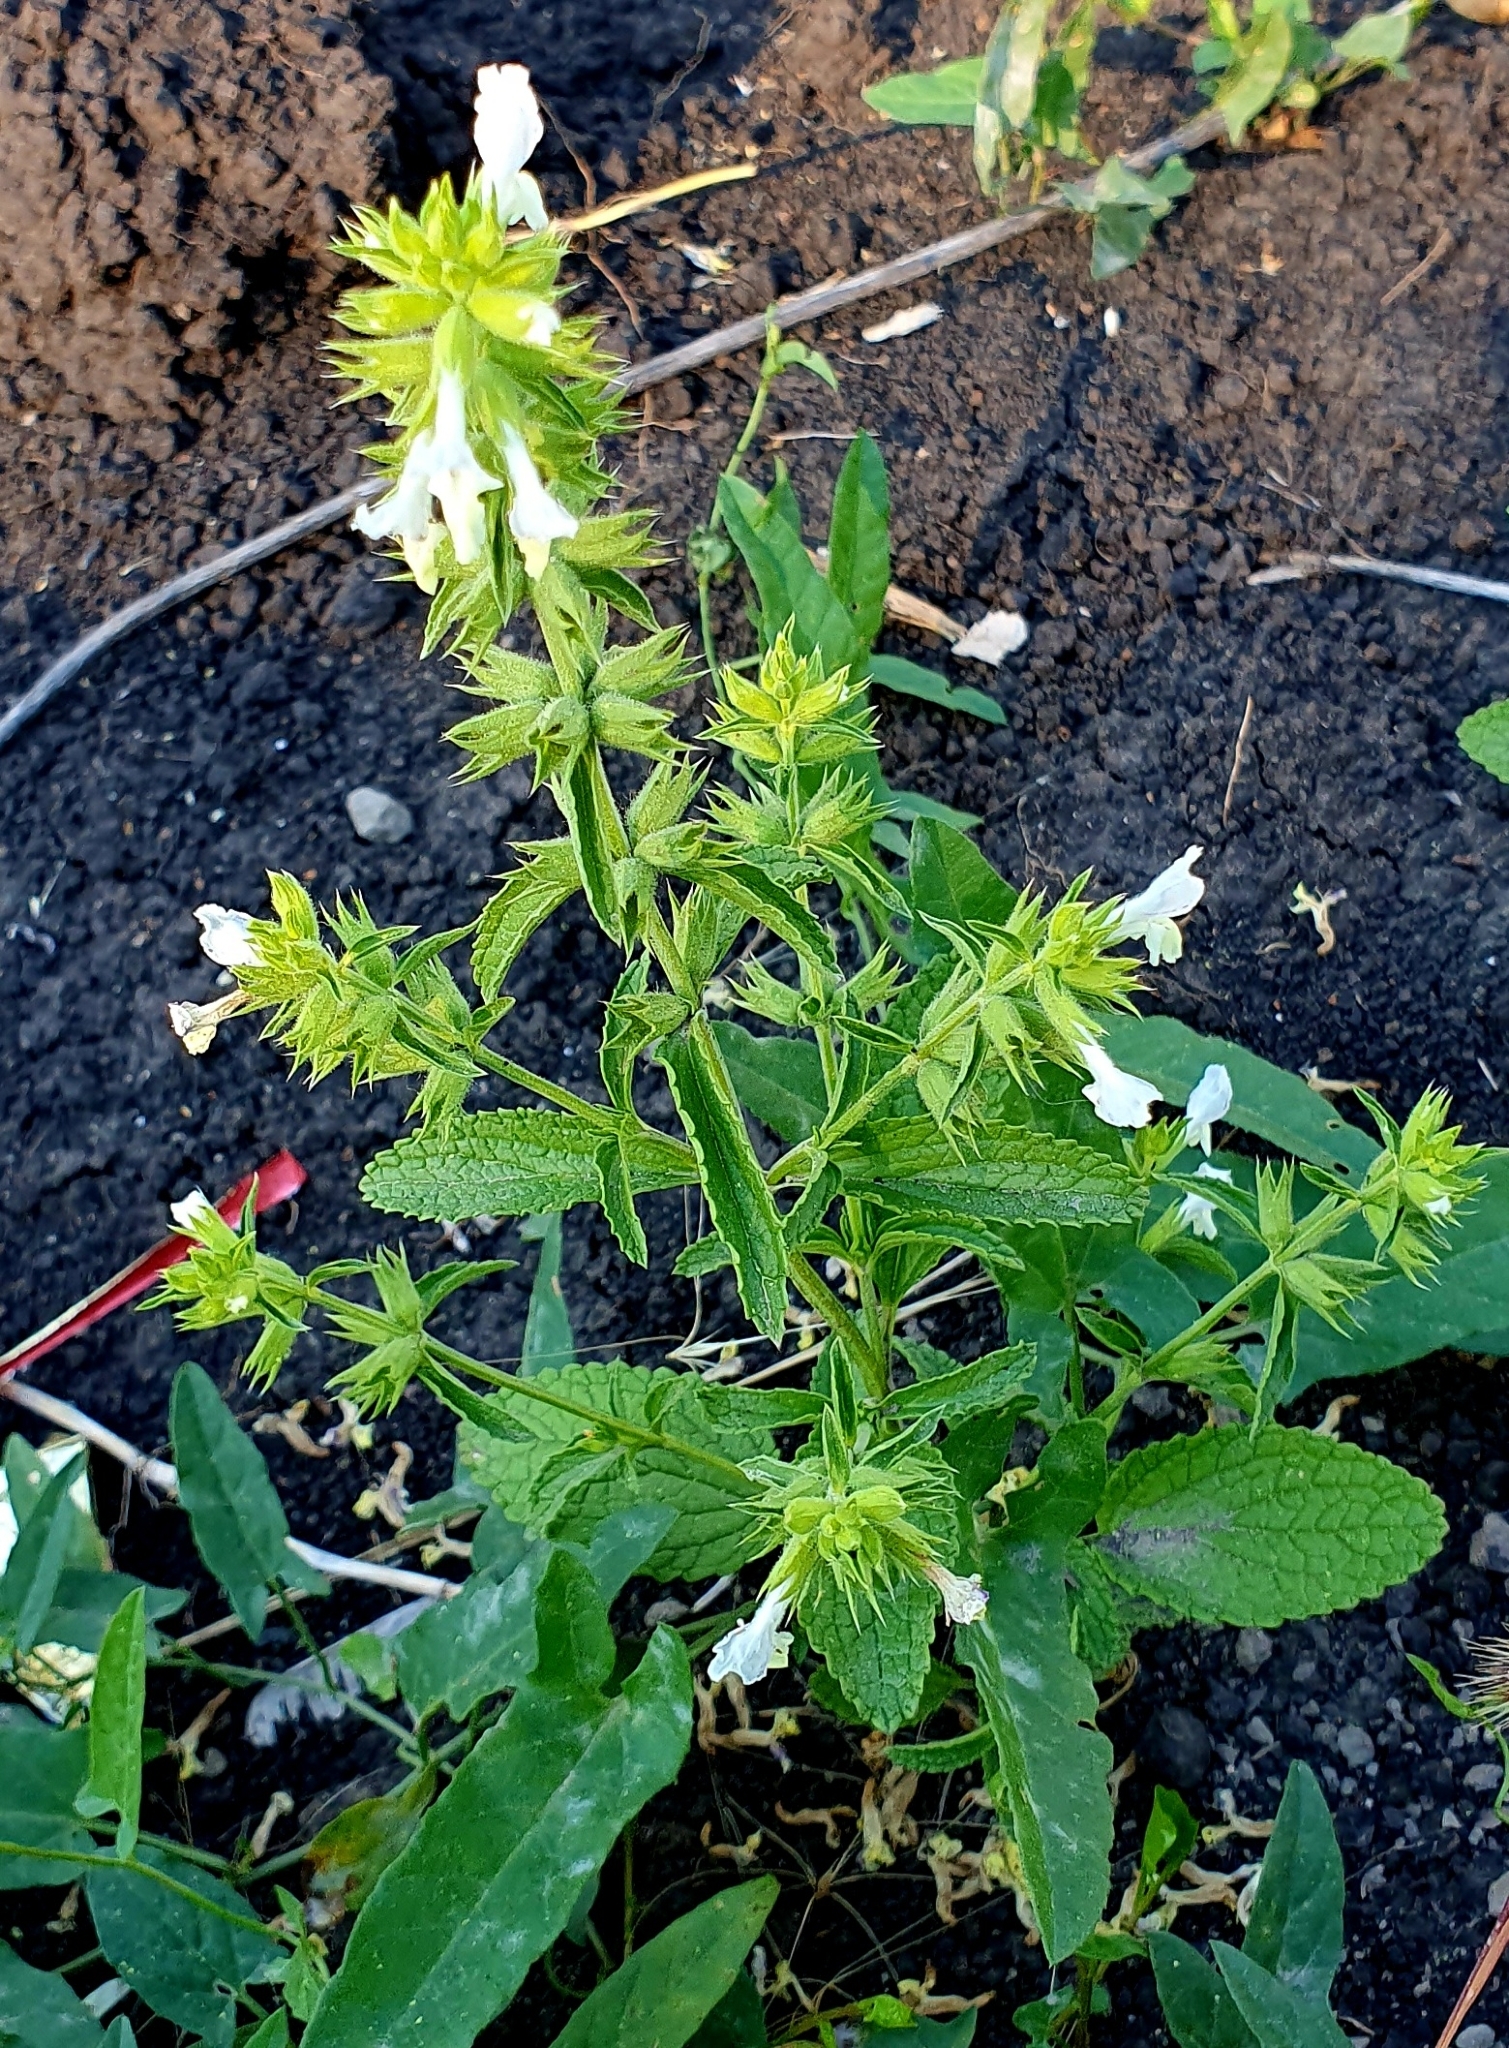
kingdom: Plantae
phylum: Tracheophyta
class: Magnoliopsida
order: Lamiales
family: Lamiaceae
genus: Stachys
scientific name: Stachys annua
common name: Annual yellow-woundwort
